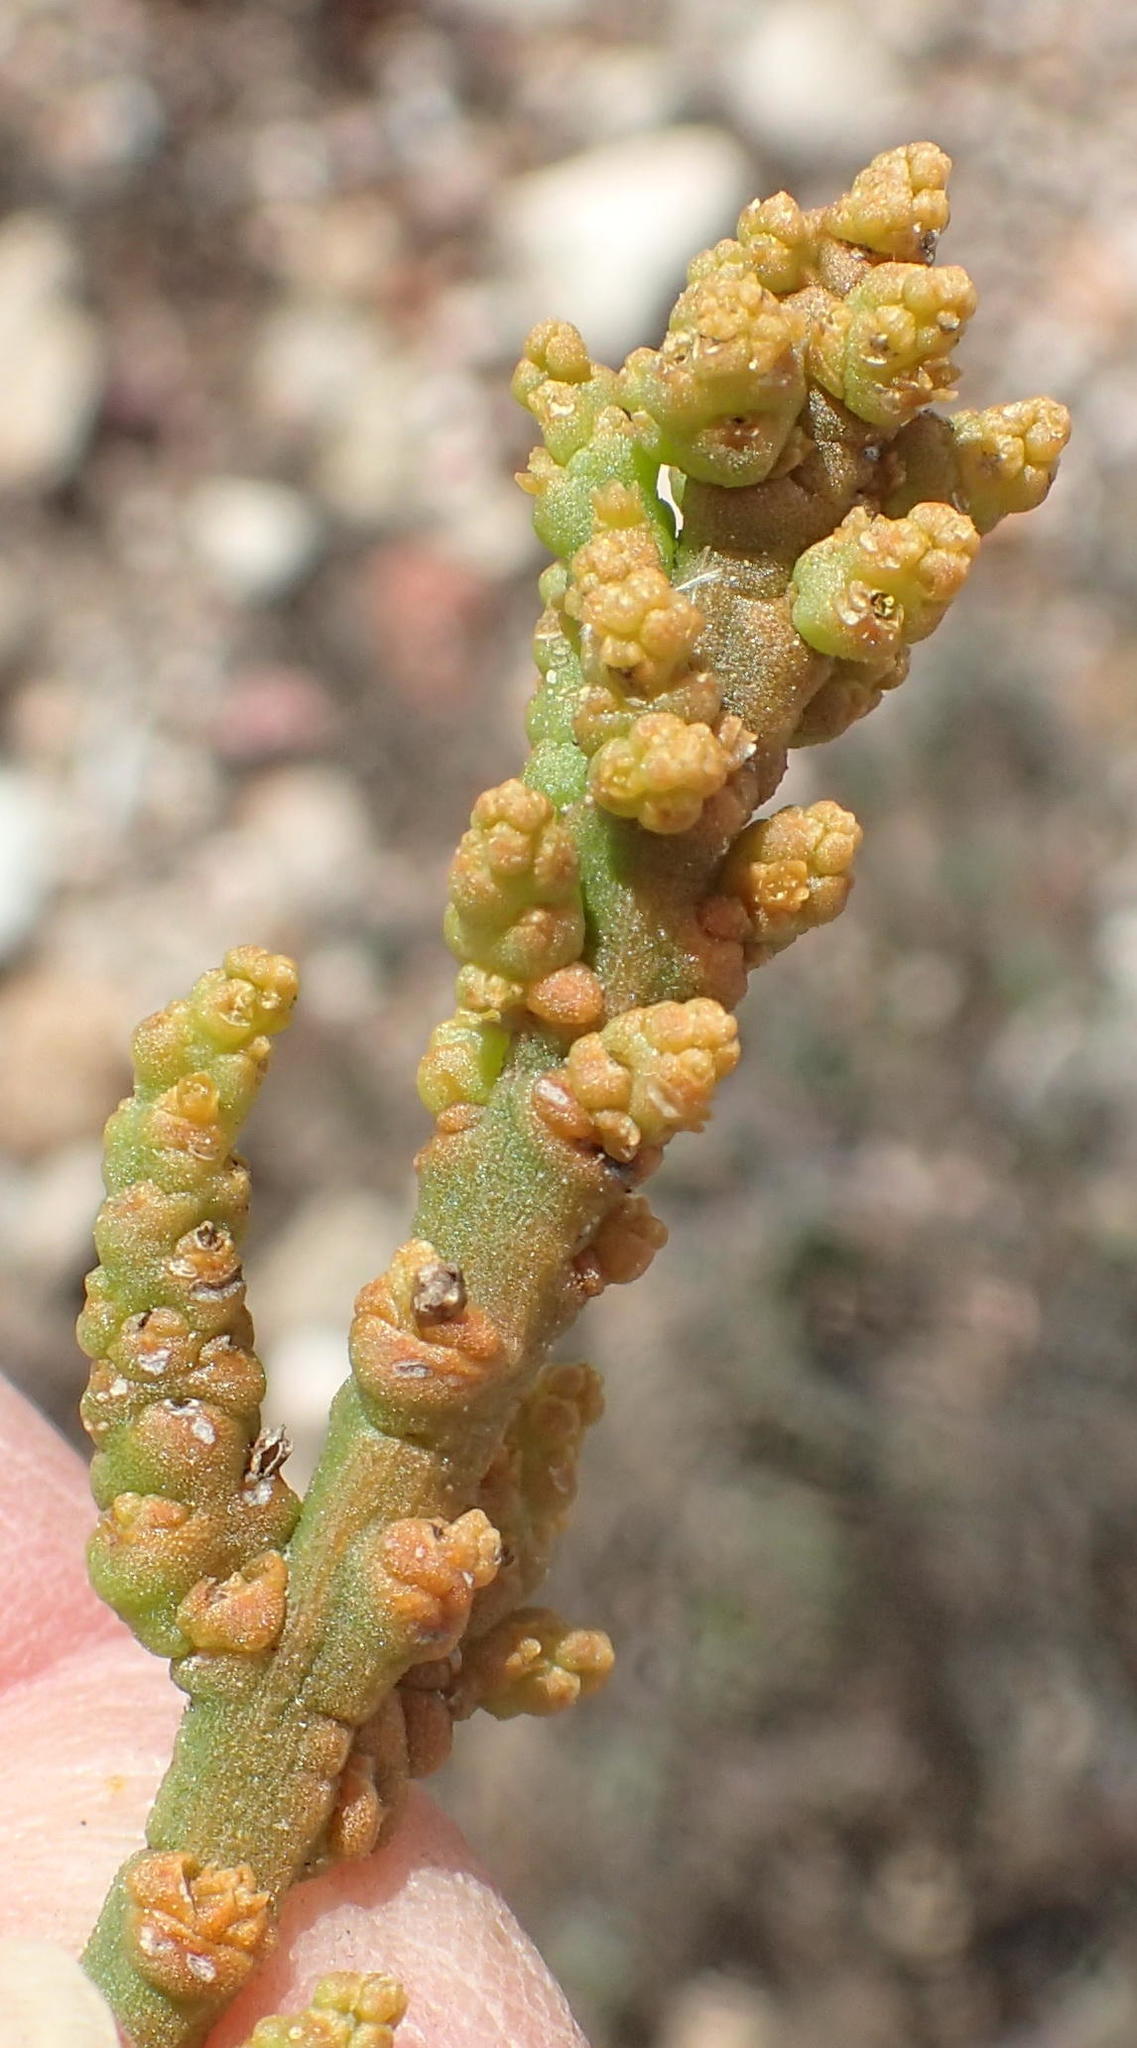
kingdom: Plantae
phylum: Tracheophyta
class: Magnoliopsida
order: Santalales
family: Thesiaceae
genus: Thesium
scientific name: Thesium confusum
